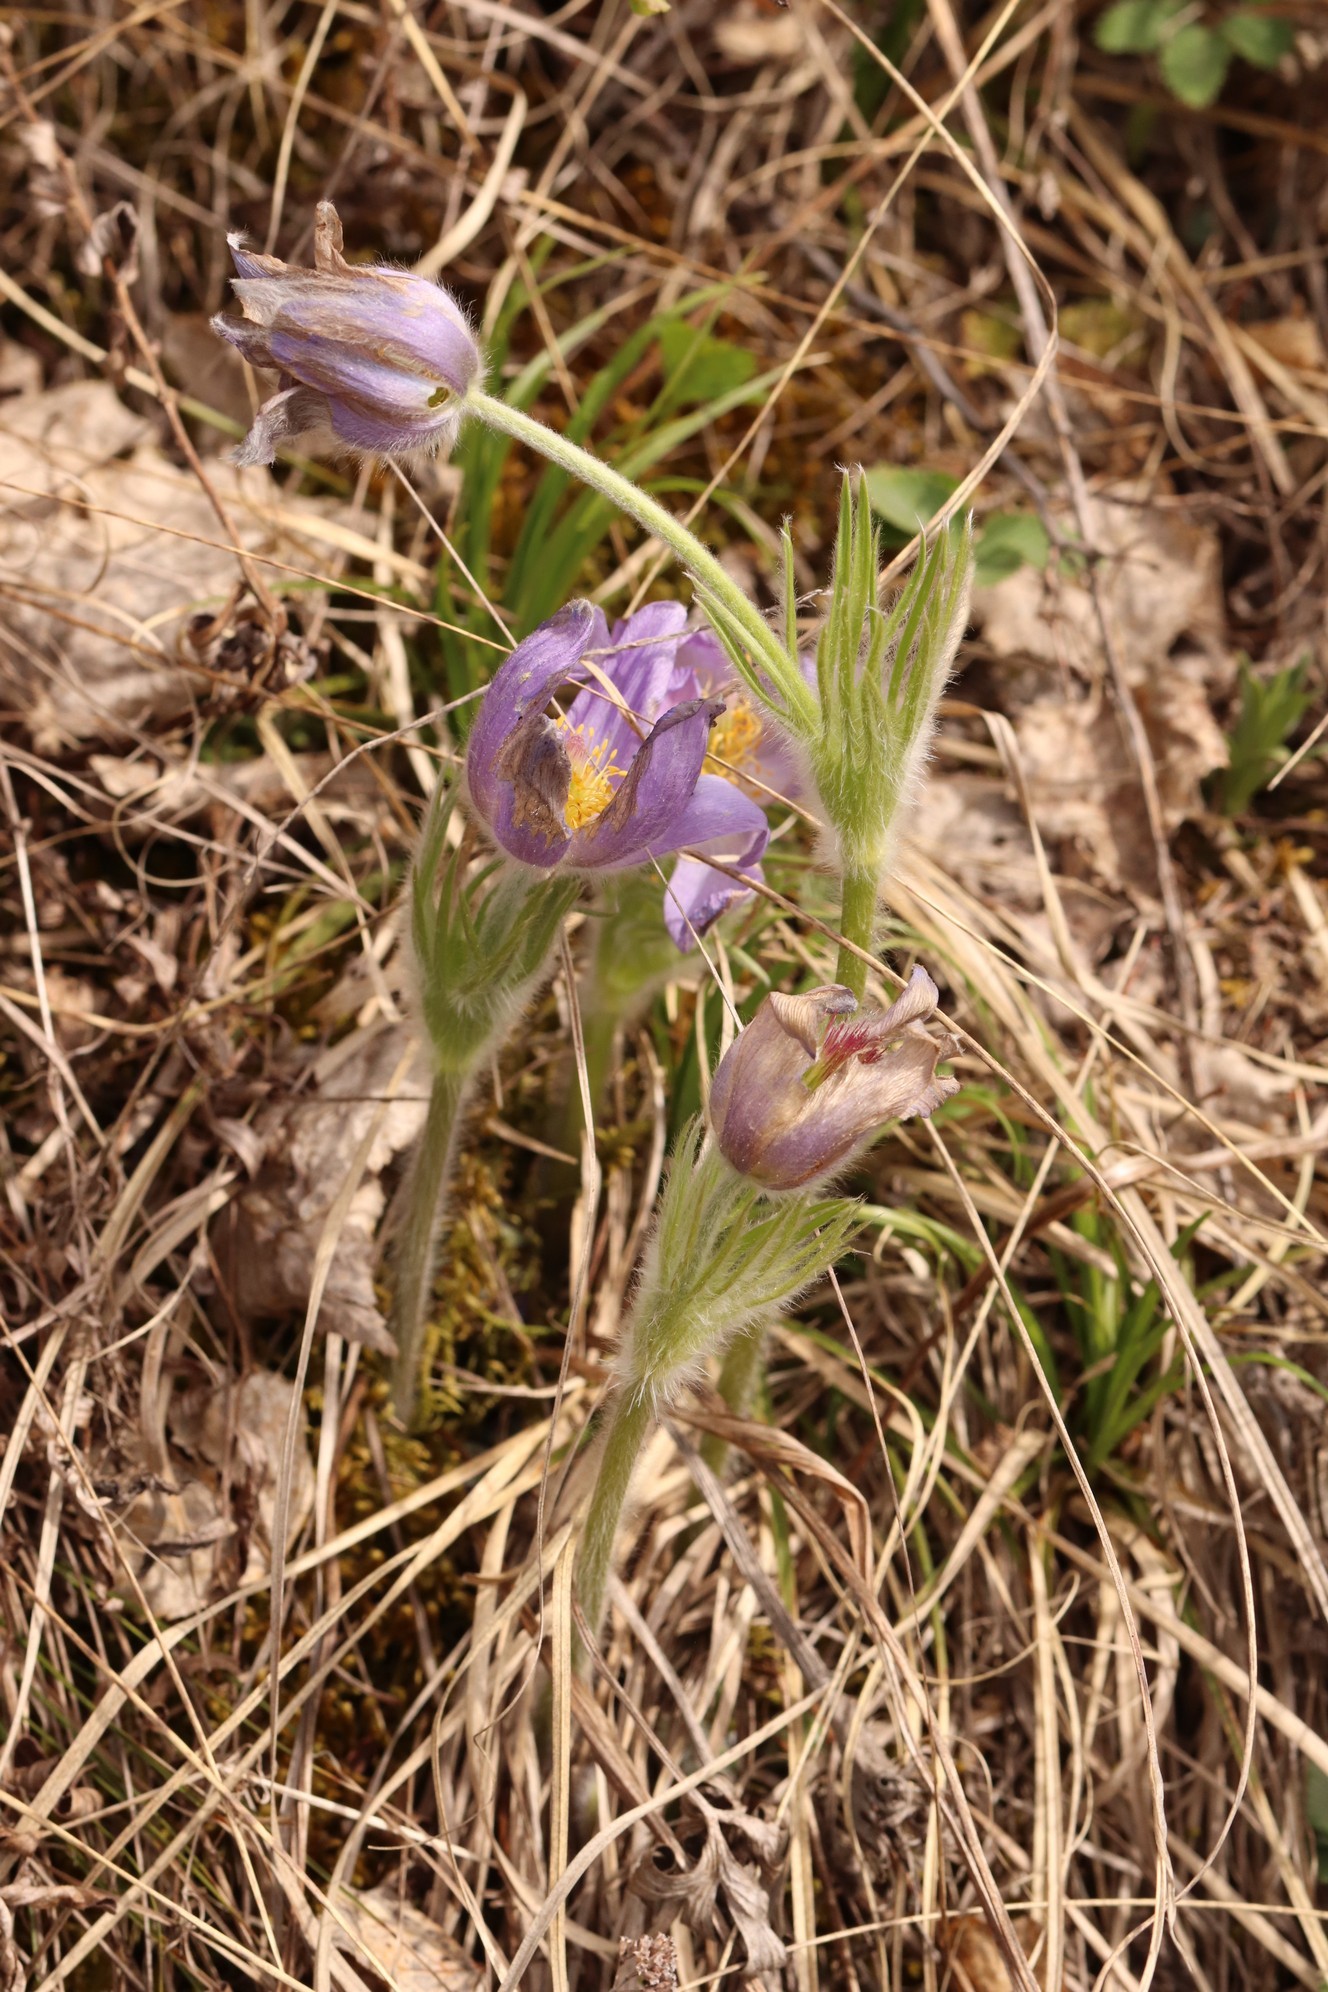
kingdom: Plantae
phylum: Tracheophyta
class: Magnoliopsida
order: Ranunculales
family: Ranunculaceae
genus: Pulsatilla
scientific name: Pulsatilla patens
